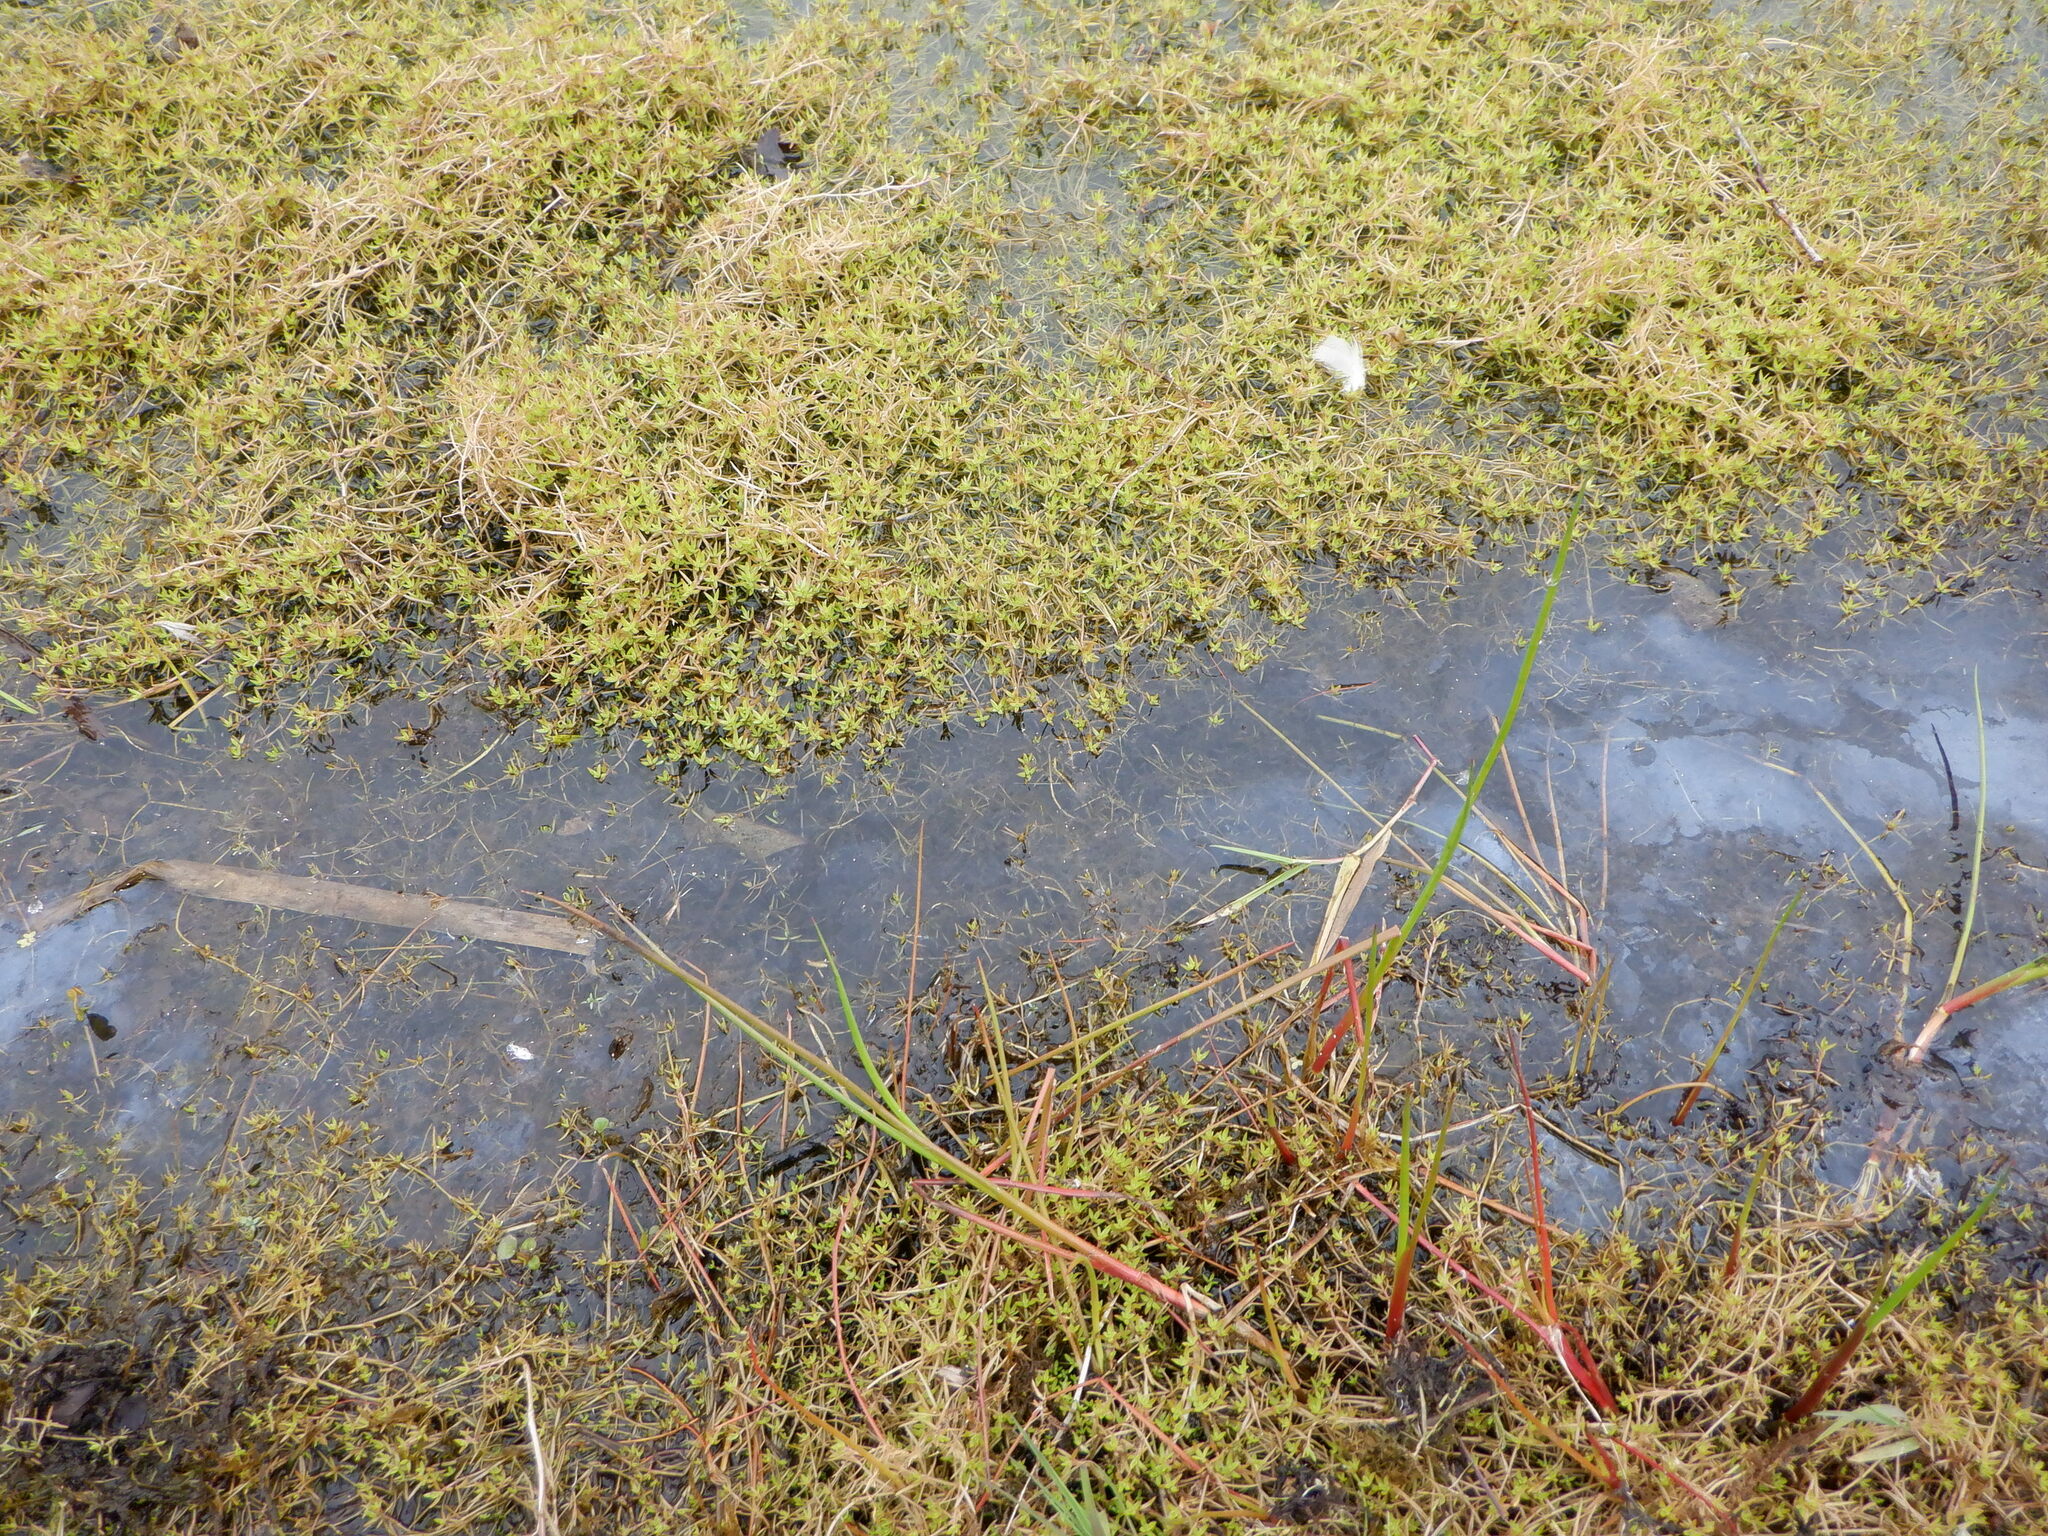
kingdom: Plantae
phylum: Tracheophyta
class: Magnoliopsida
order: Saxifragales
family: Crassulaceae
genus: Crassula
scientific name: Crassula helmsii
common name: New zealand pigmyweed
